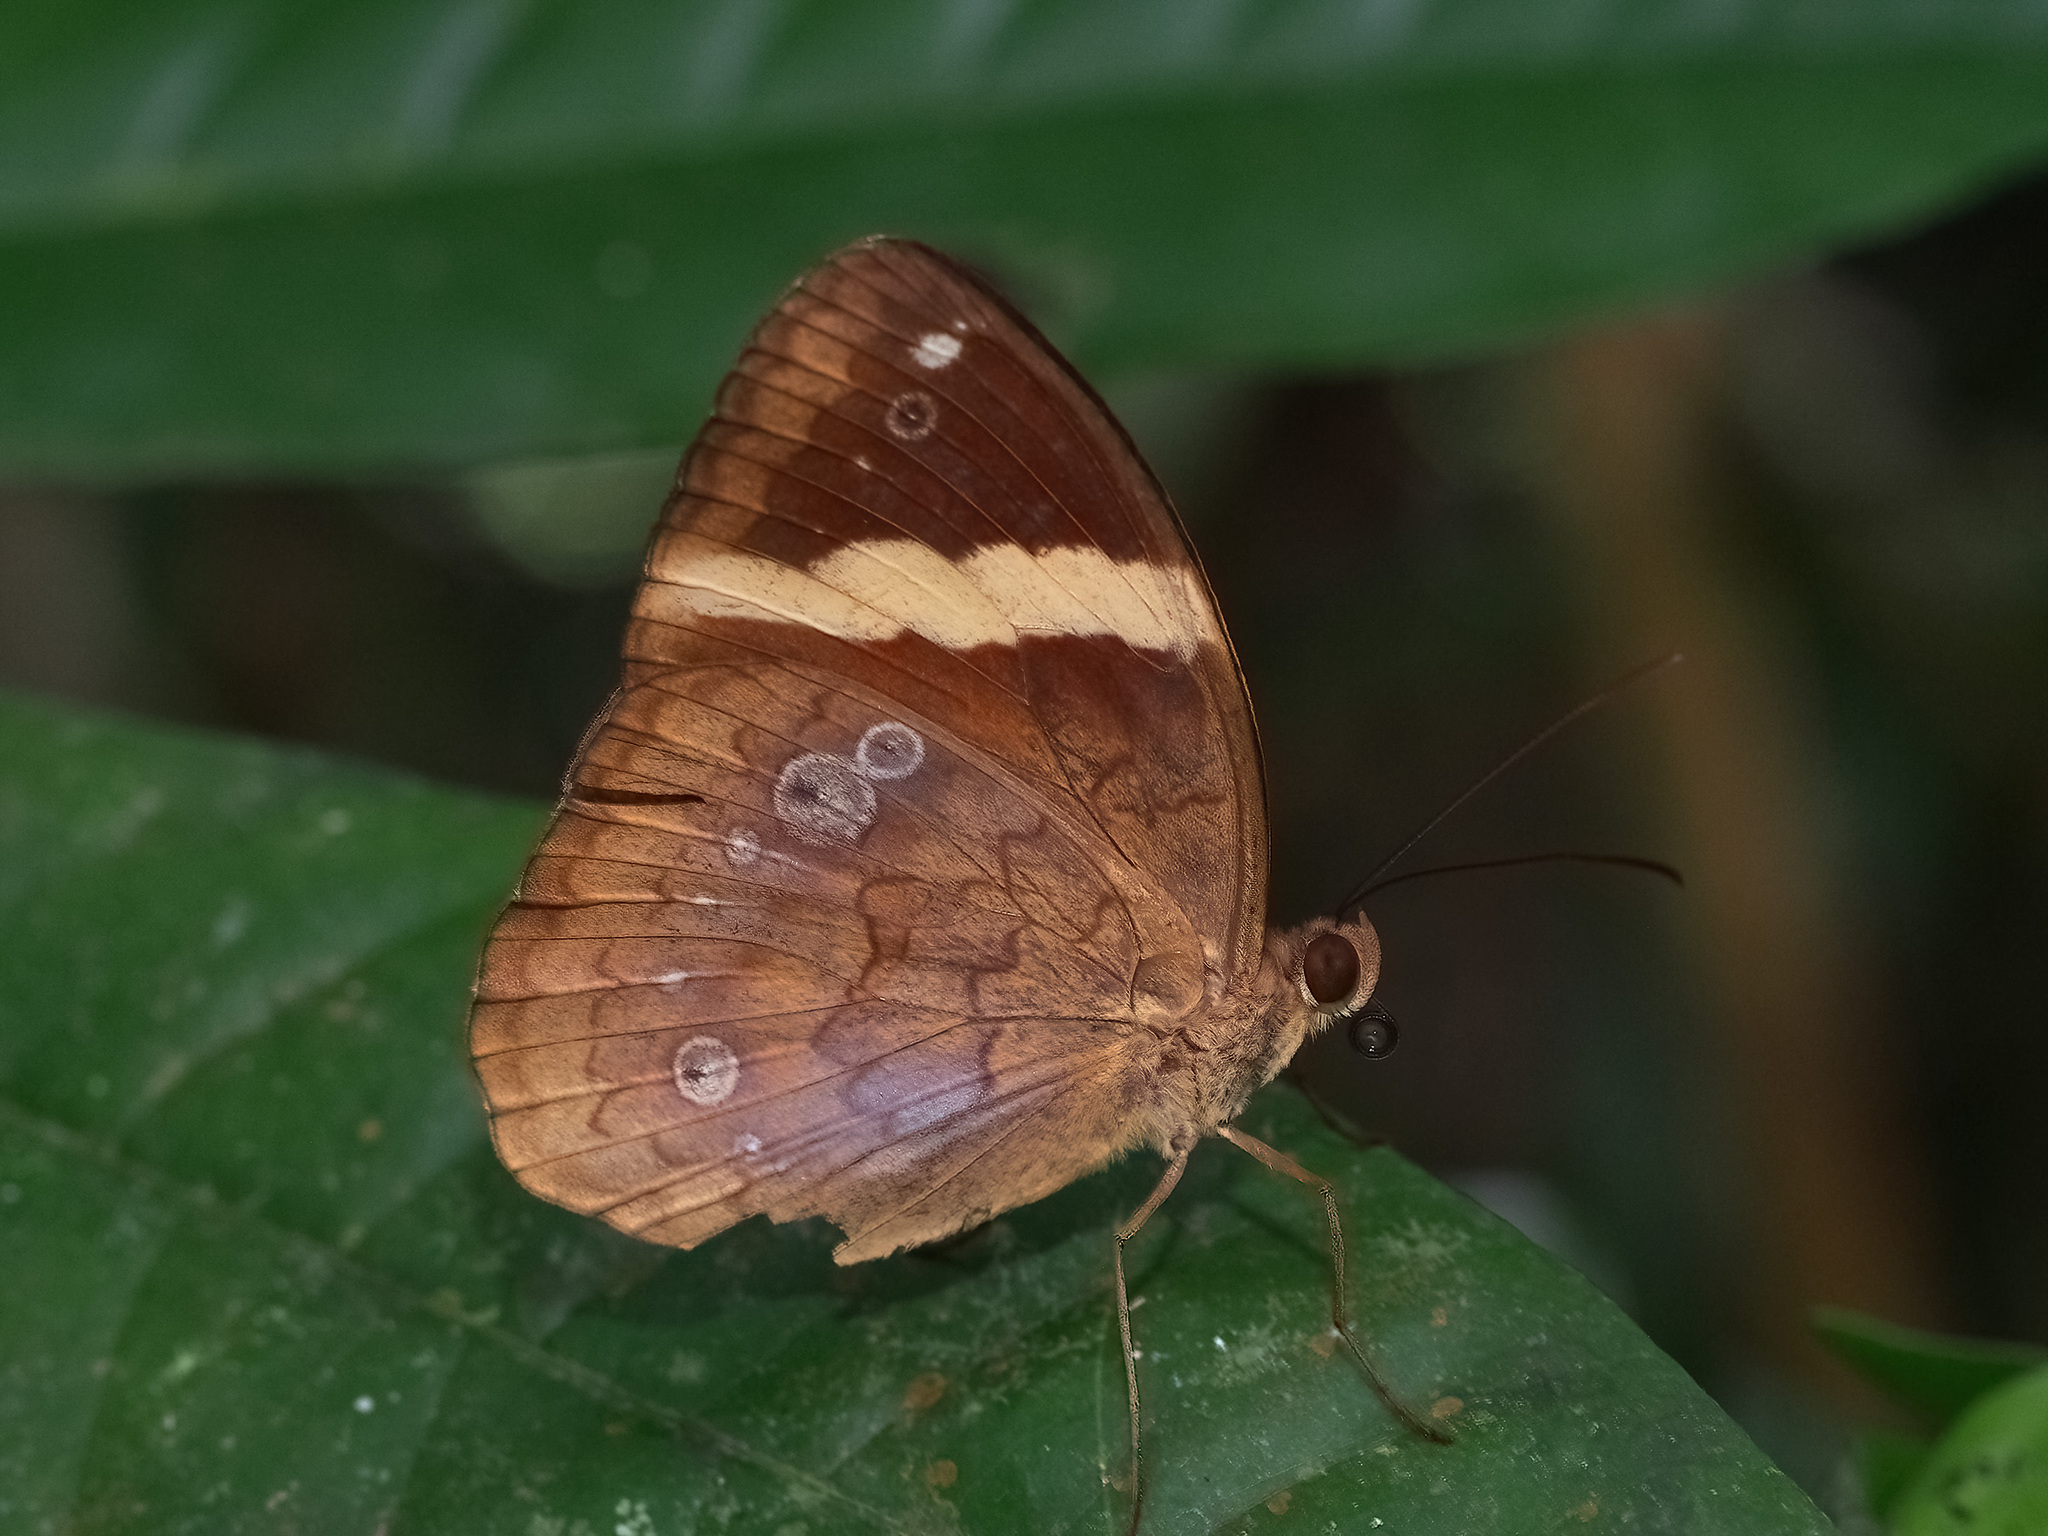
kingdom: Animalia
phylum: Arthropoda
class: Insecta
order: Lepidoptera
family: Nymphalidae
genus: Xanthotaenia
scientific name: Xanthotaenia busiris
